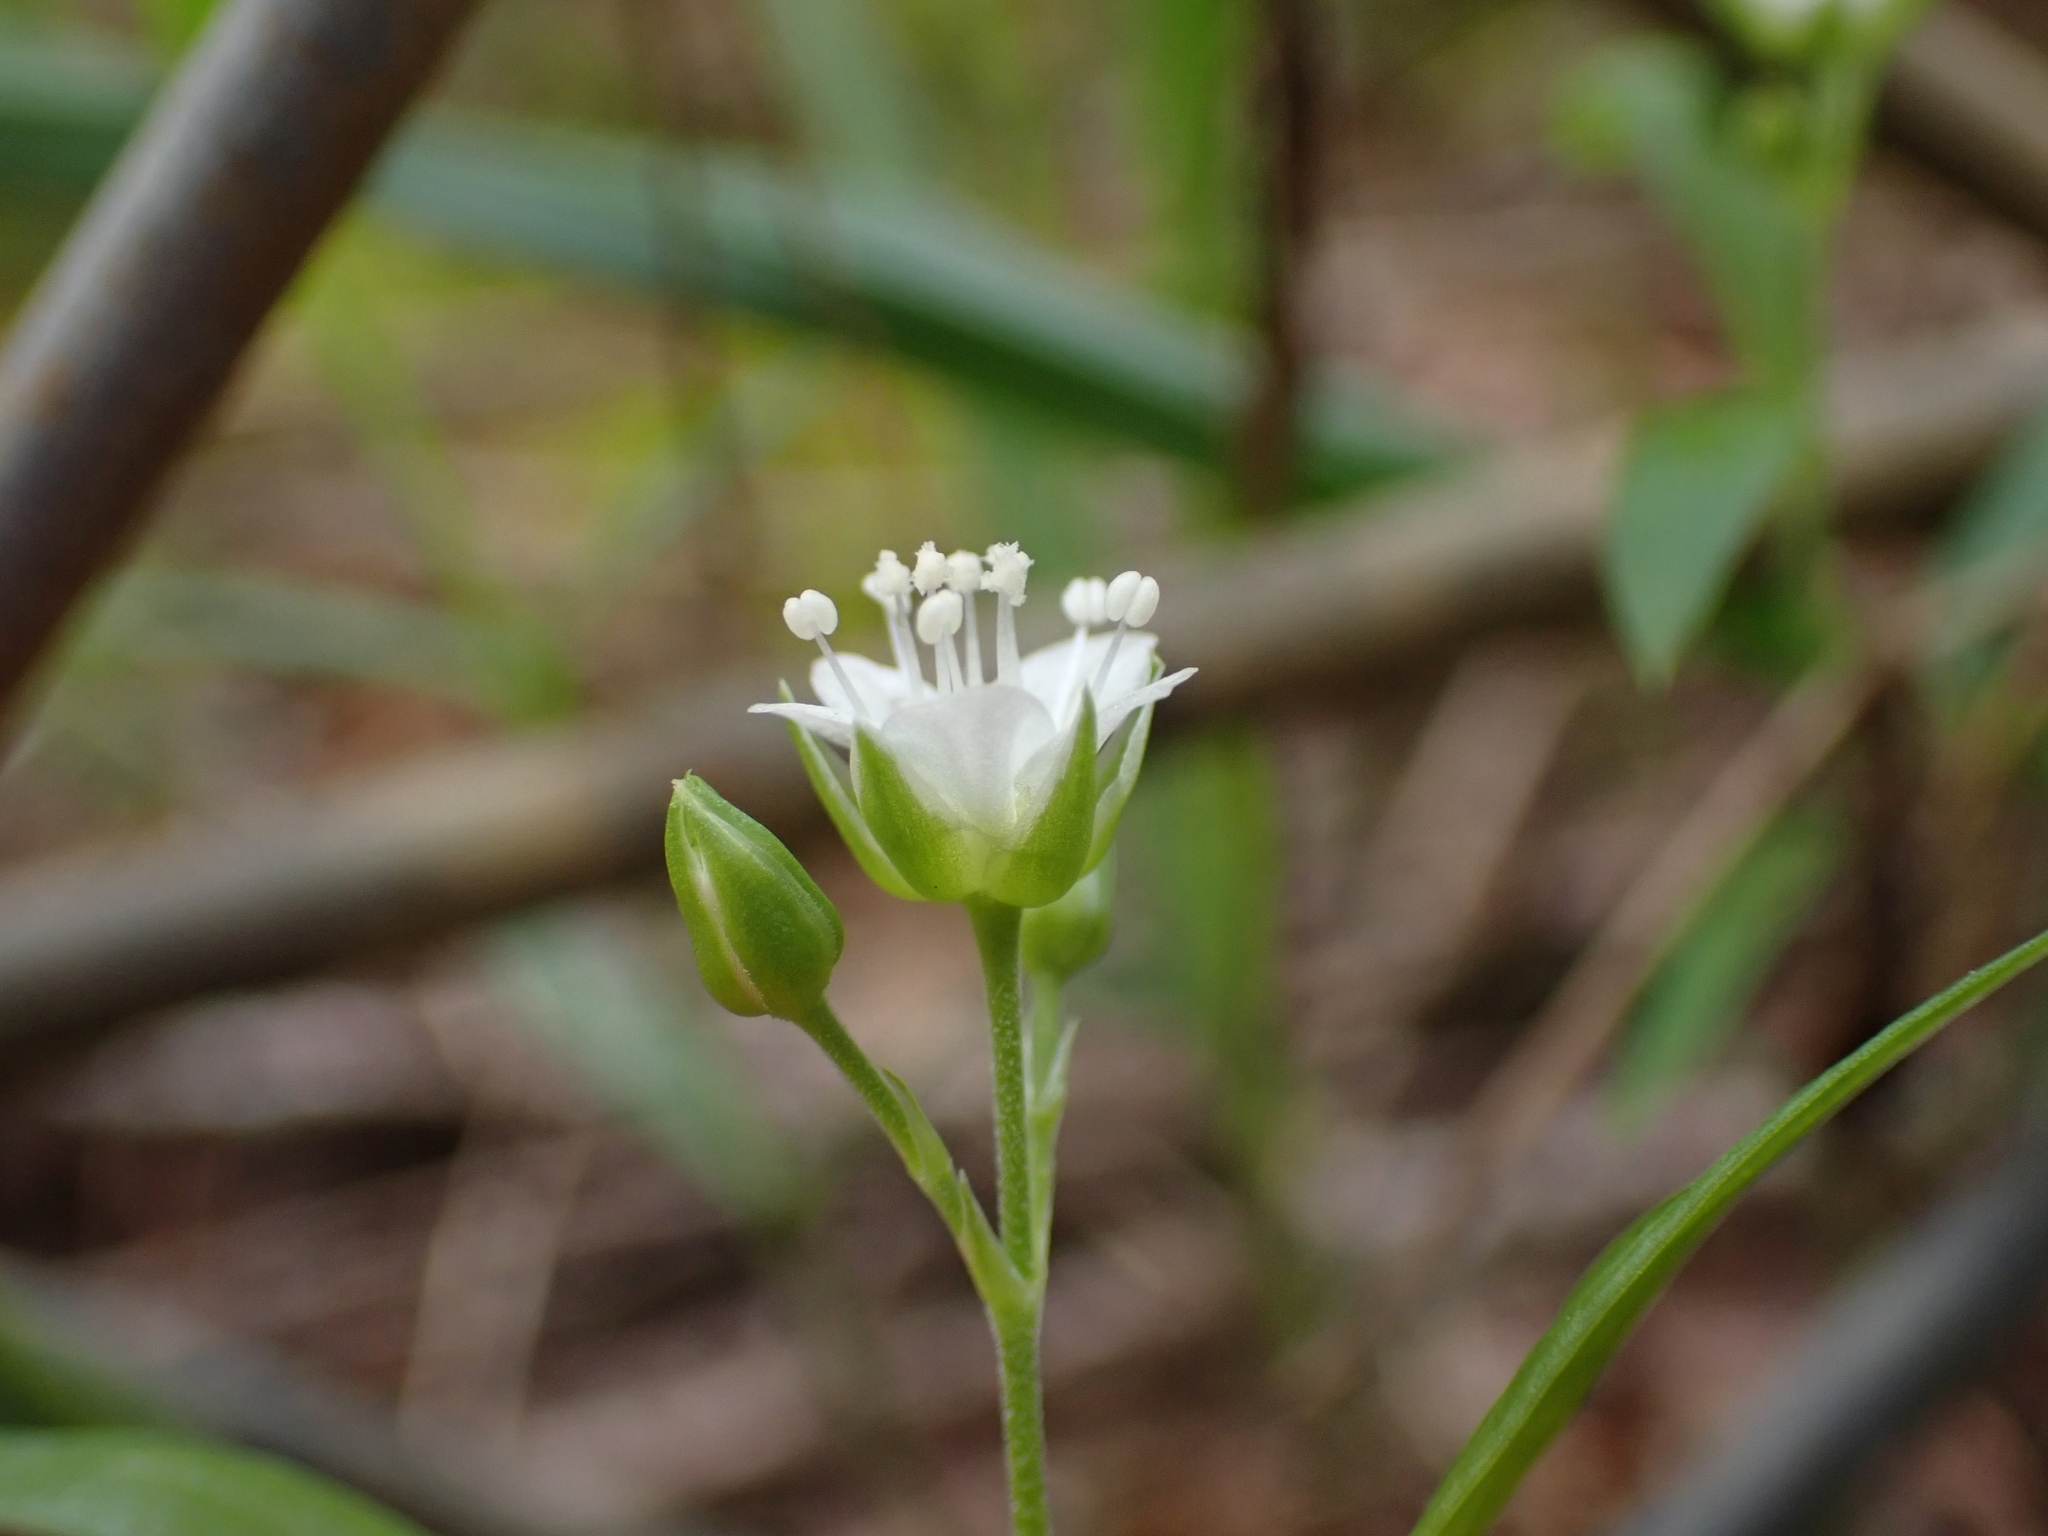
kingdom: Plantae
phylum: Tracheophyta
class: Magnoliopsida
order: Caryophyllales
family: Caryophyllaceae
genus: Moehringia
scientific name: Moehringia macrophylla
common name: Big-leaf sandwort
